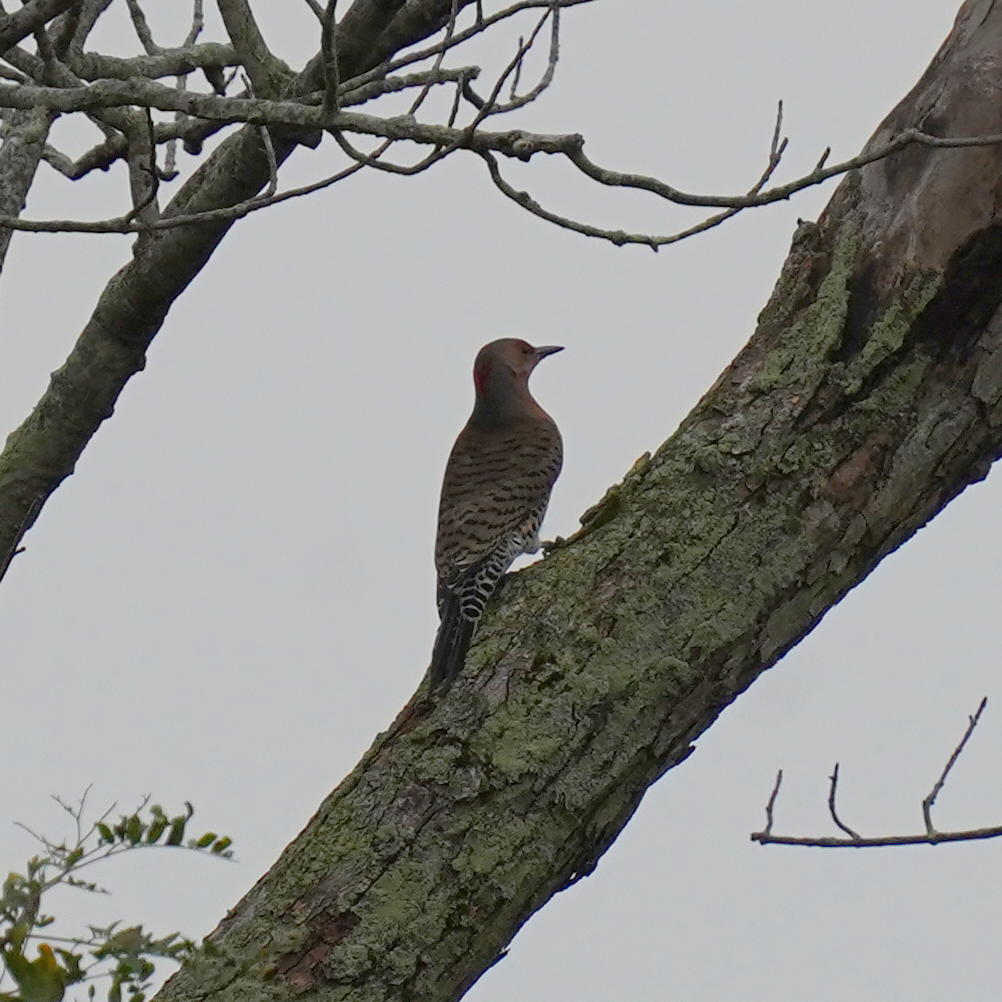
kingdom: Animalia
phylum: Chordata
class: Aves
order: Piciformes
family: Picidae
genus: Colaptes
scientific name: Colaptes auratus
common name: Northern flicker
